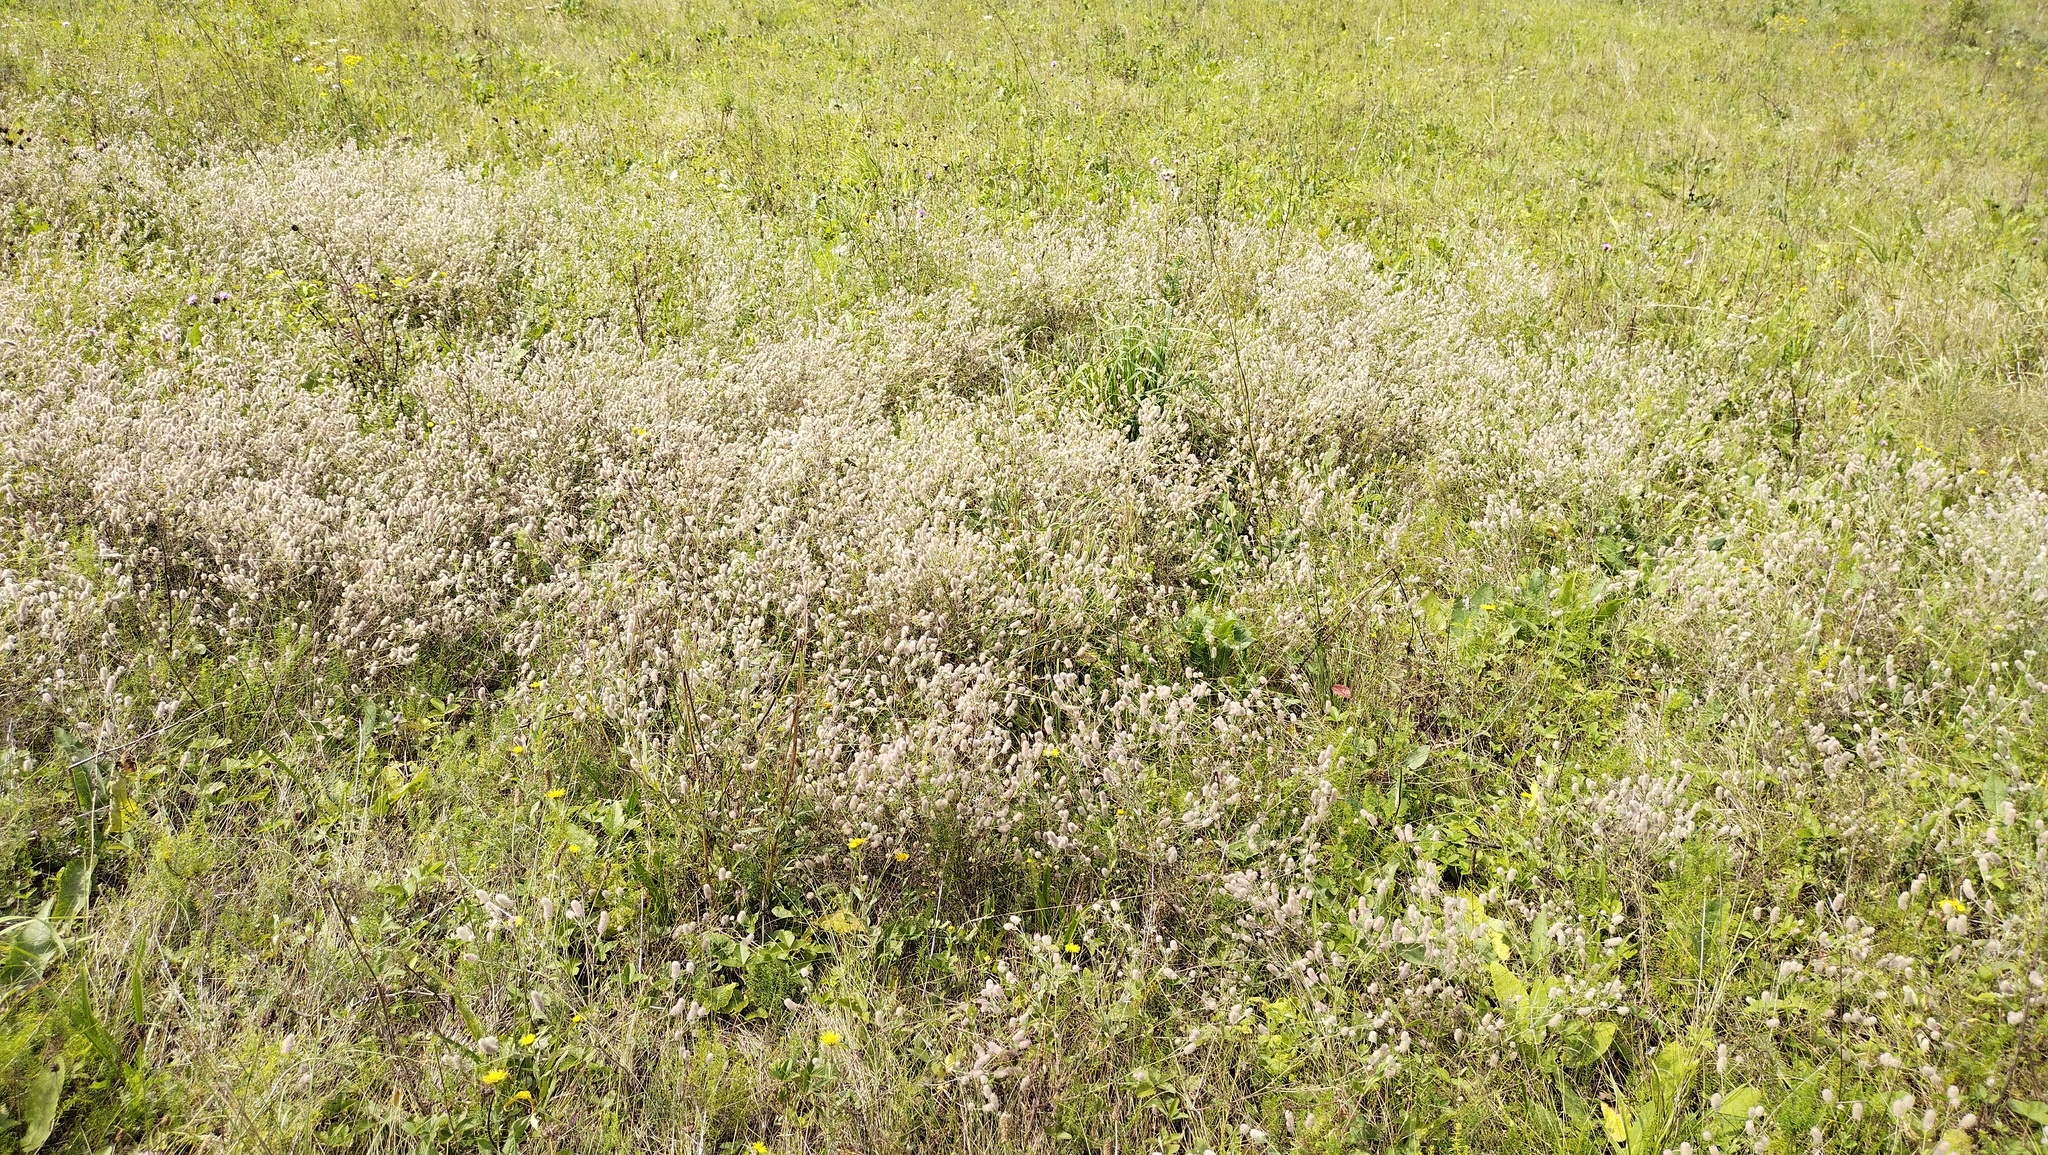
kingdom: Plantae
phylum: Tracheophyta
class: Magnoliopsida
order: Fabales
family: Fabaceae
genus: Trifolium
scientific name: Trifolium arvense
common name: Hare's-foot clover
